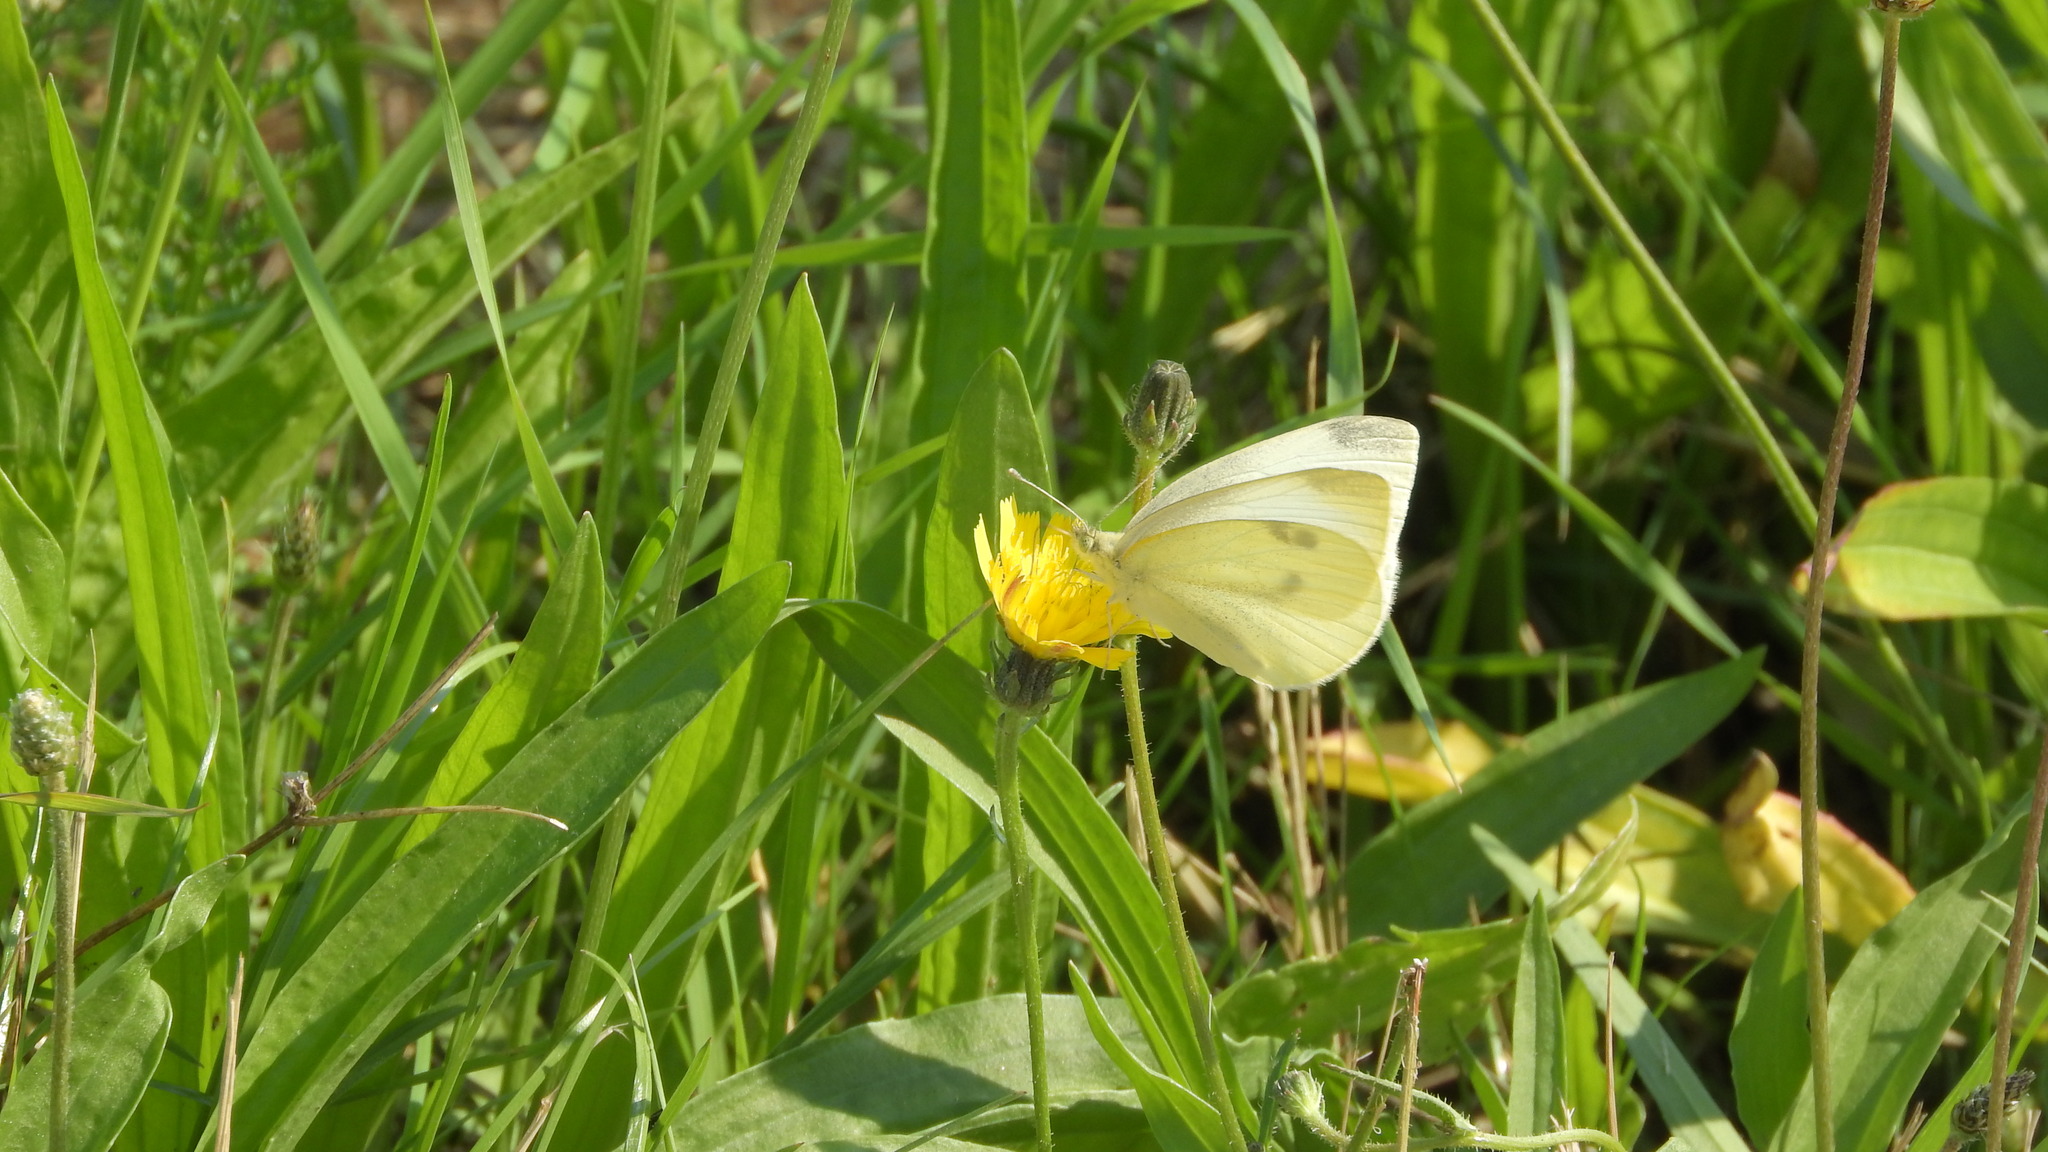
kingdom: Animalia
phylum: Arthropoda
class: Insecta
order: Lepidoptera
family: Pieridae
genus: Pieris
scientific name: Pieris rapae
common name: Small white
